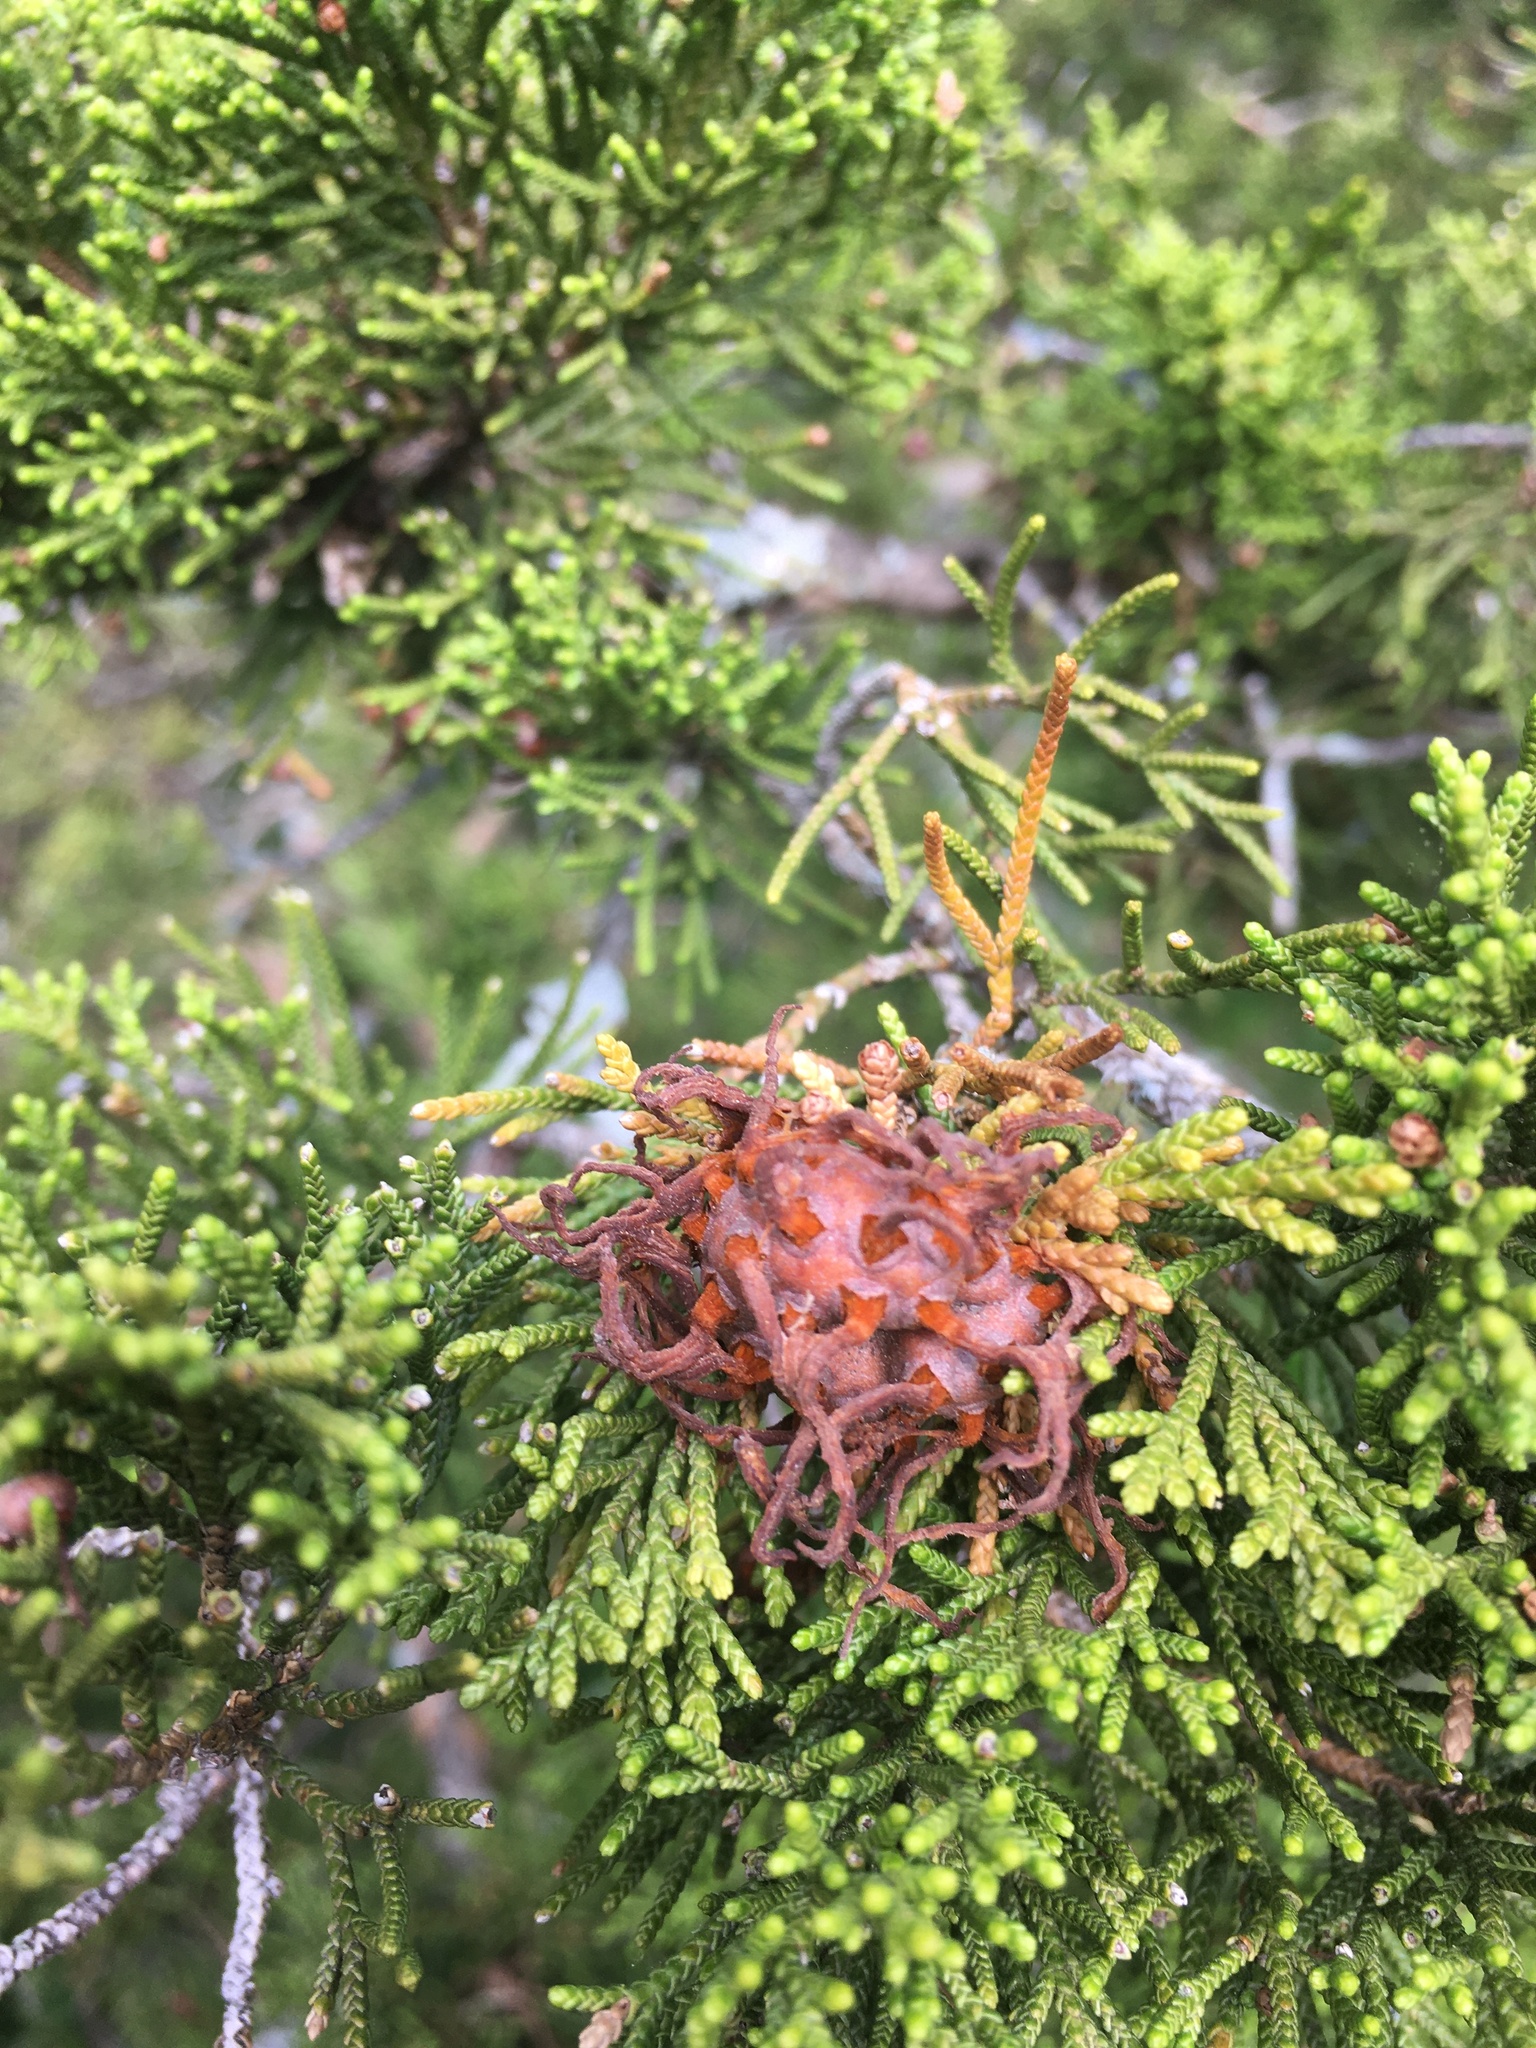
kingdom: Fungi
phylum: Basidiomycota
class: Pucciniomycetes
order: Pucciniales
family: Gymnosporangiaceae
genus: Gymnosporangium
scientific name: Gymnosporangium juniperi-virginianae
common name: Juniper-apple rust
